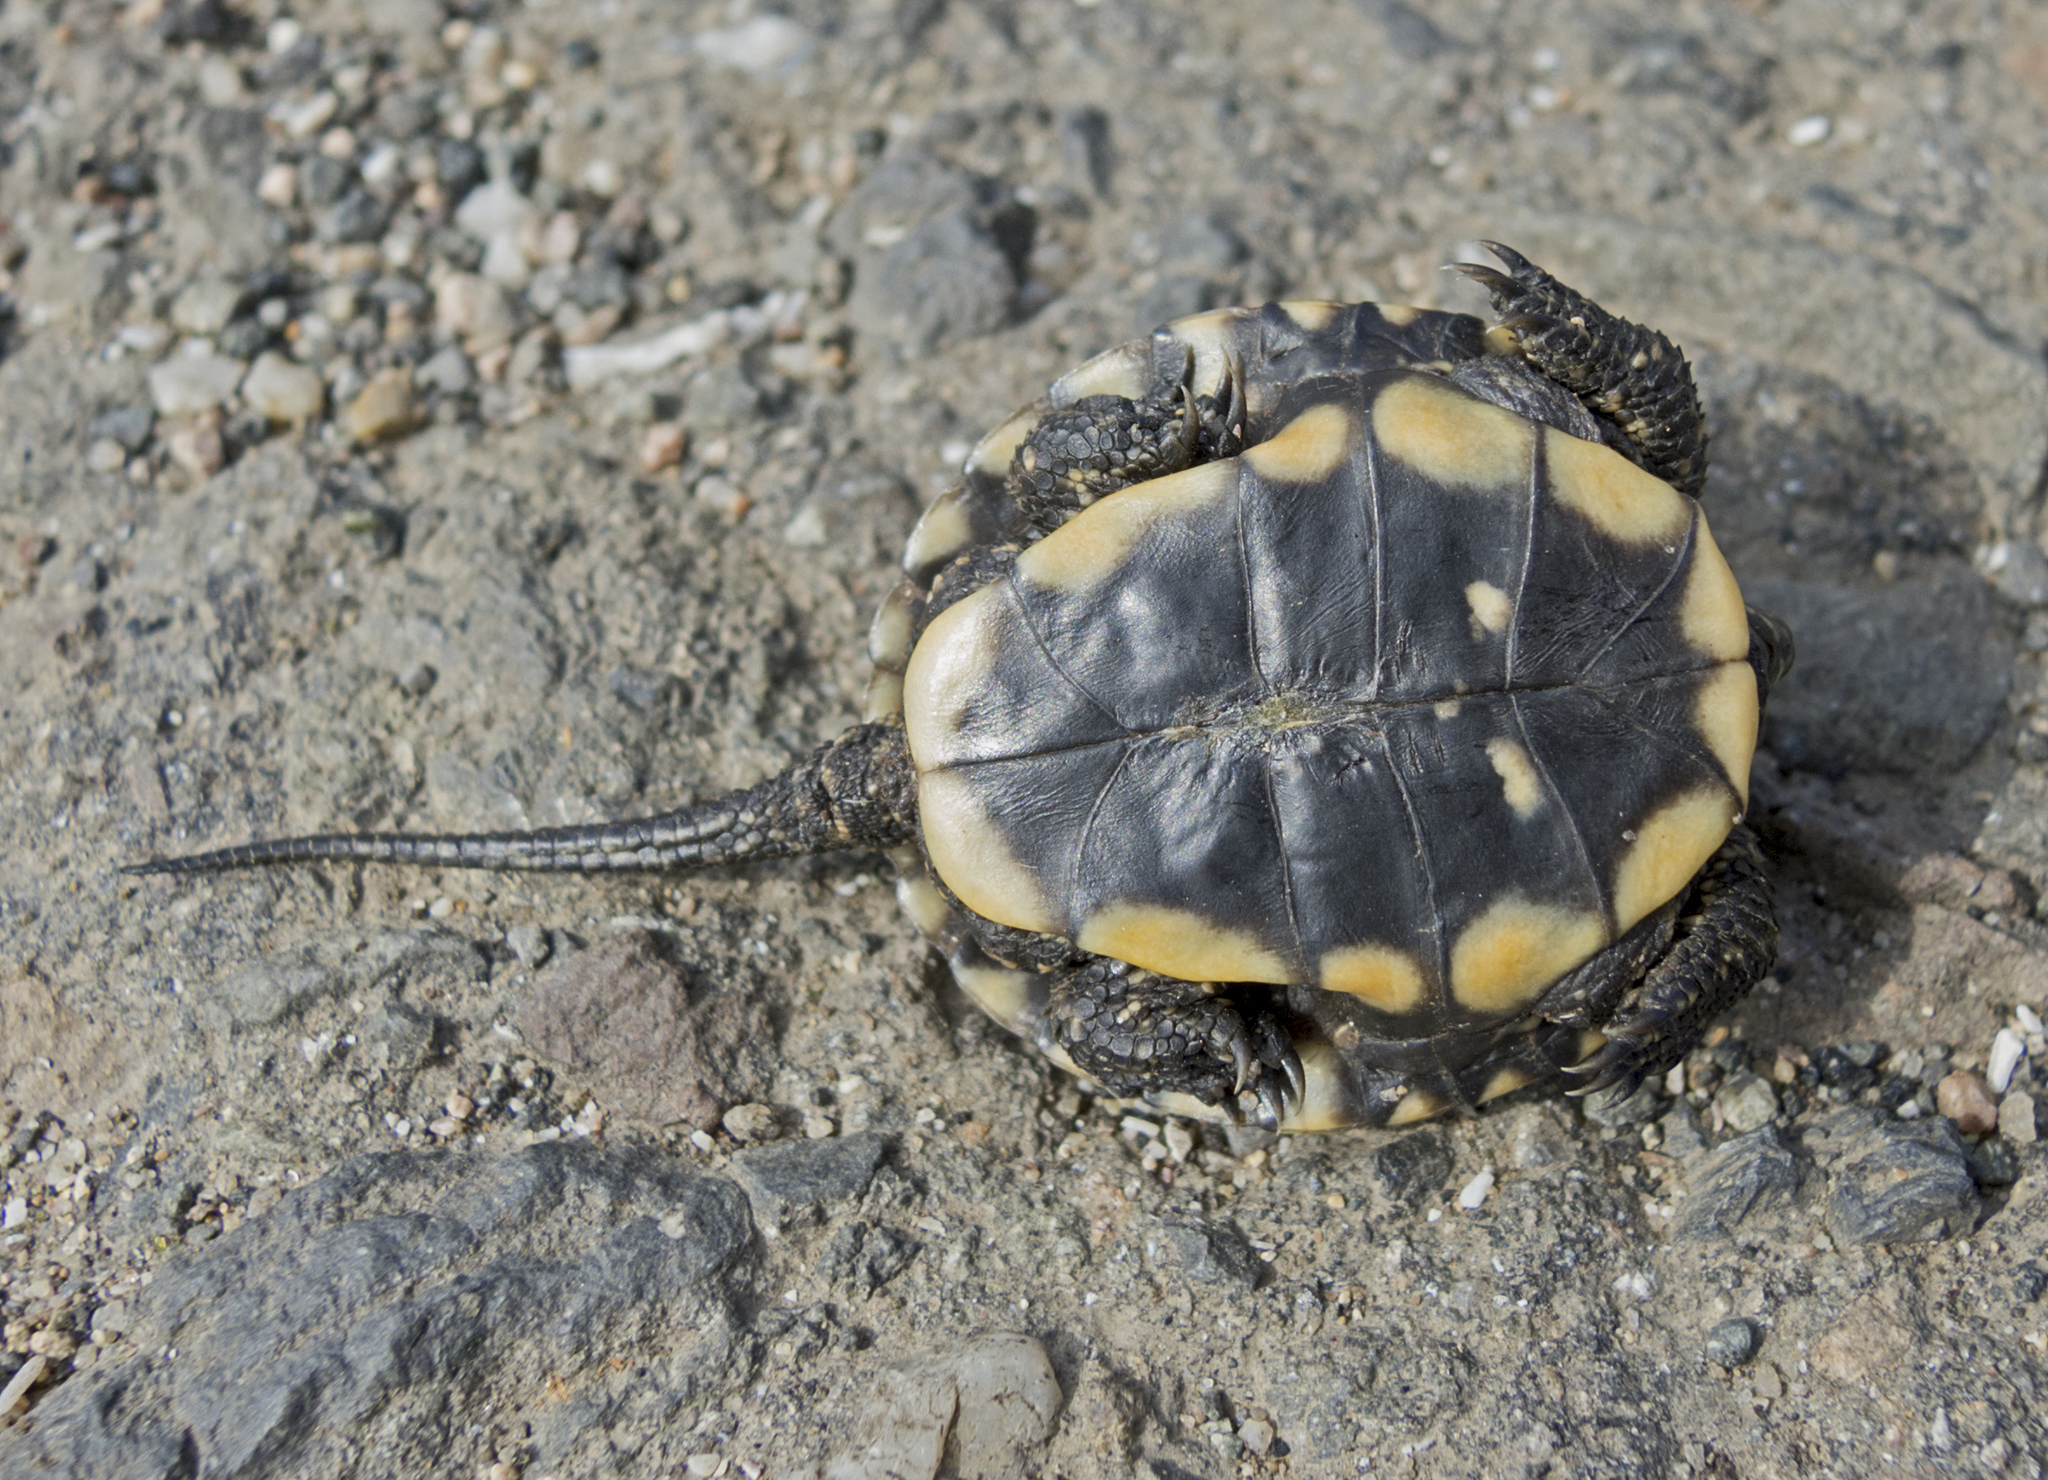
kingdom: Animalia
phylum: Chordata
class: Testudines
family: Emydidae
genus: Emys
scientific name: Emys orbicularis
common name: European pond turtle
